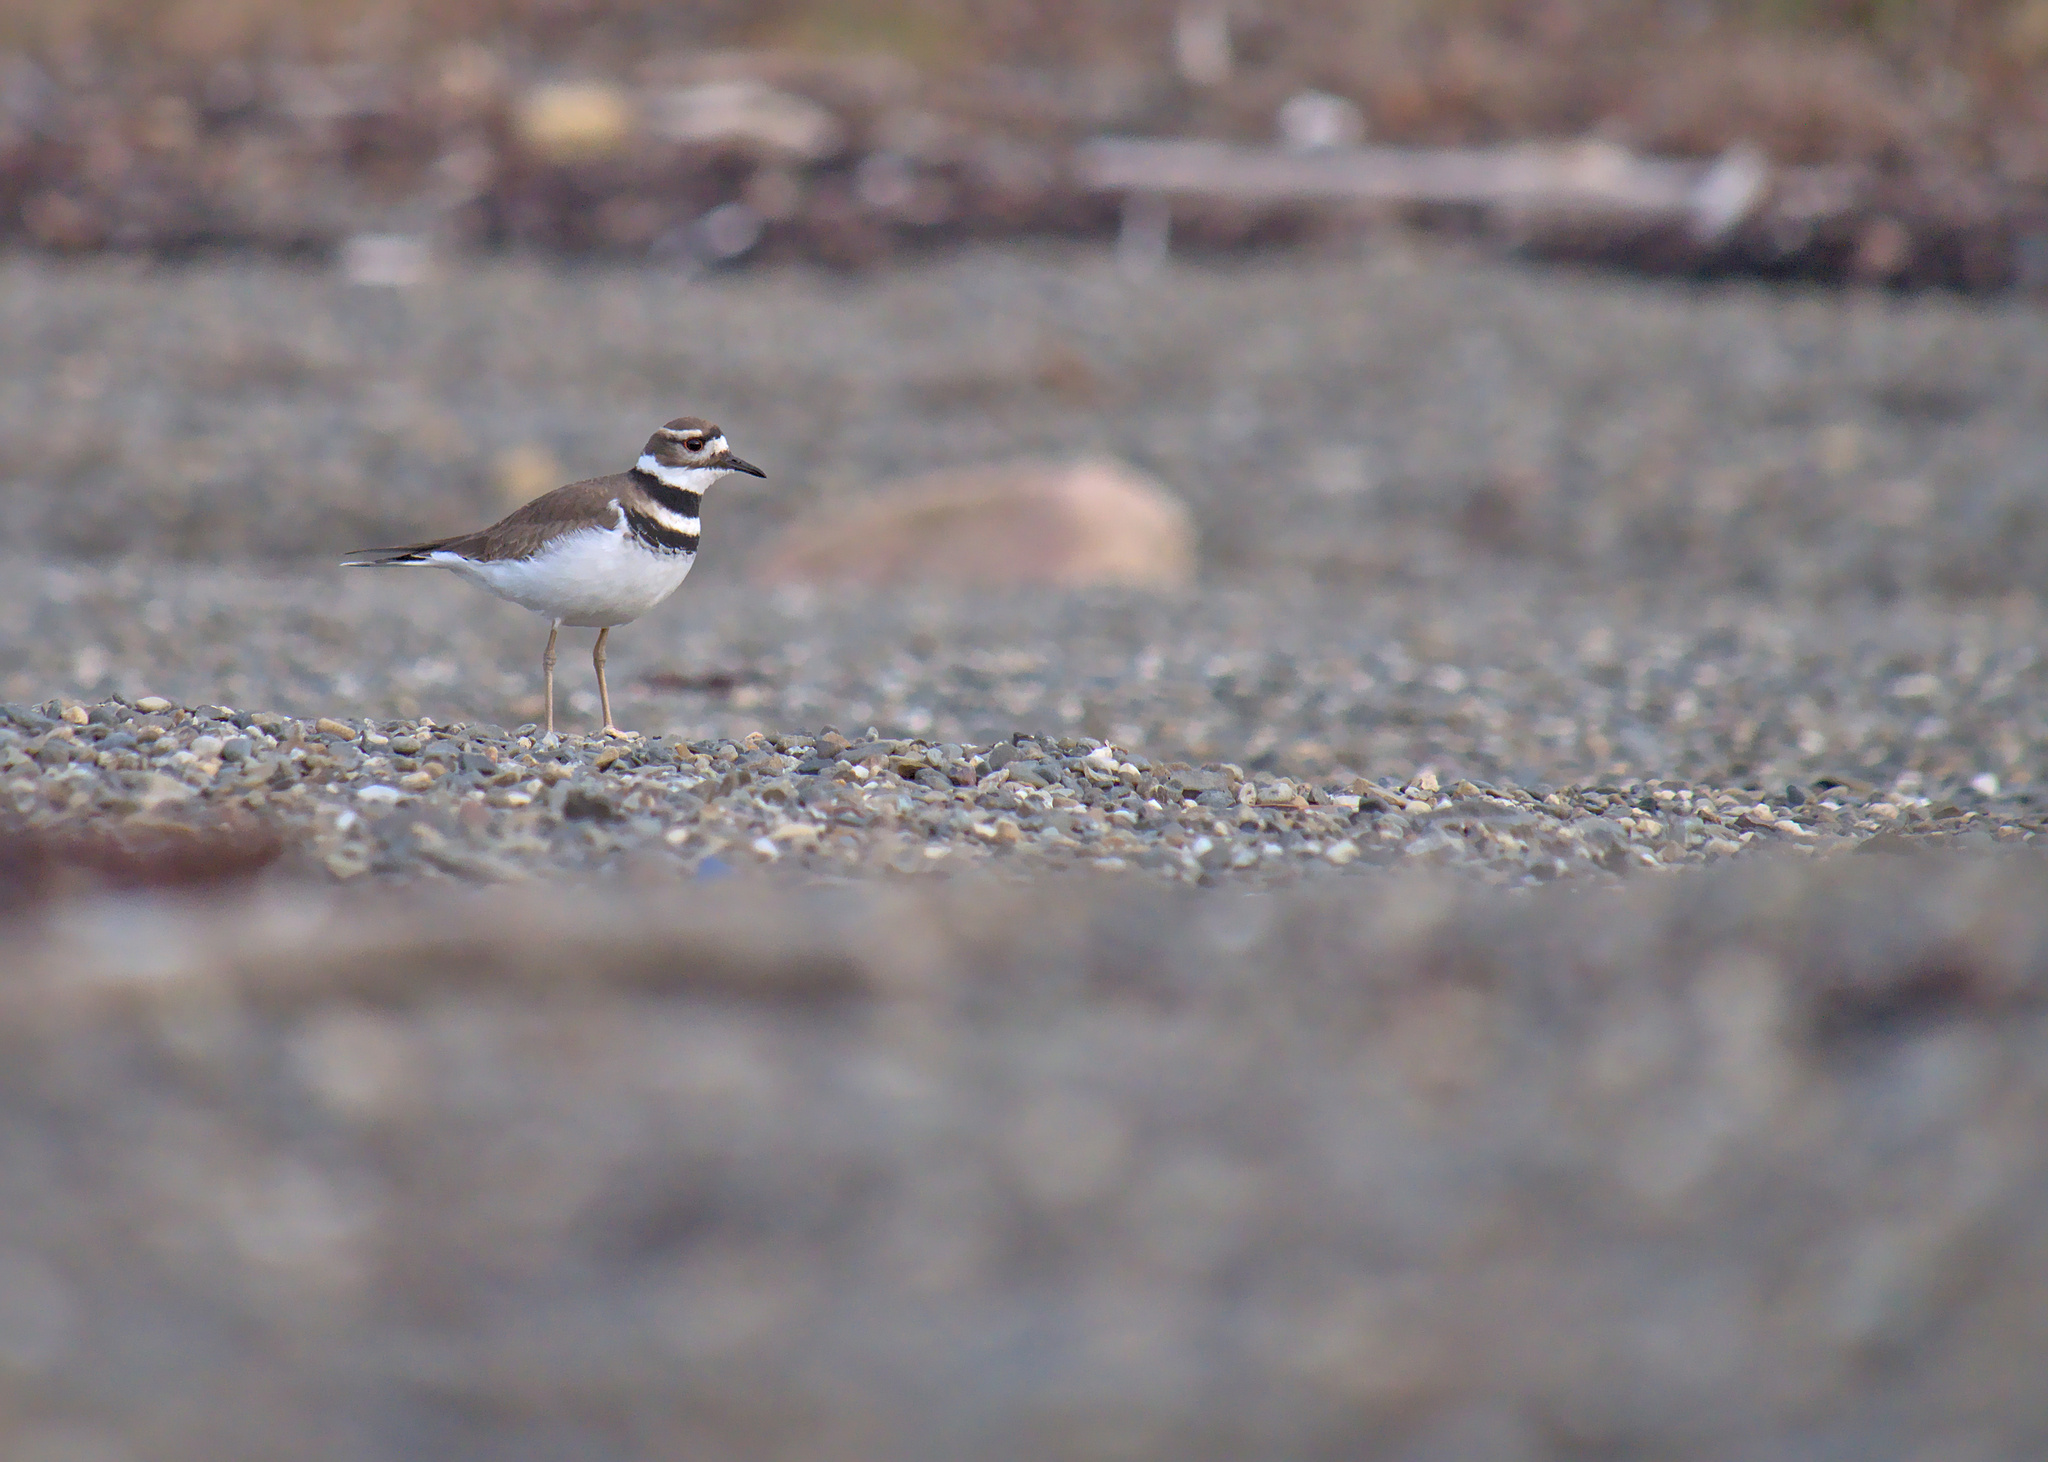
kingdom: Animalia
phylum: Chordata
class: Aves
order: Charadriiformes
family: Charadriidae
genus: Charadrius
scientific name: Charadrius vociferus
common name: Killdeer
